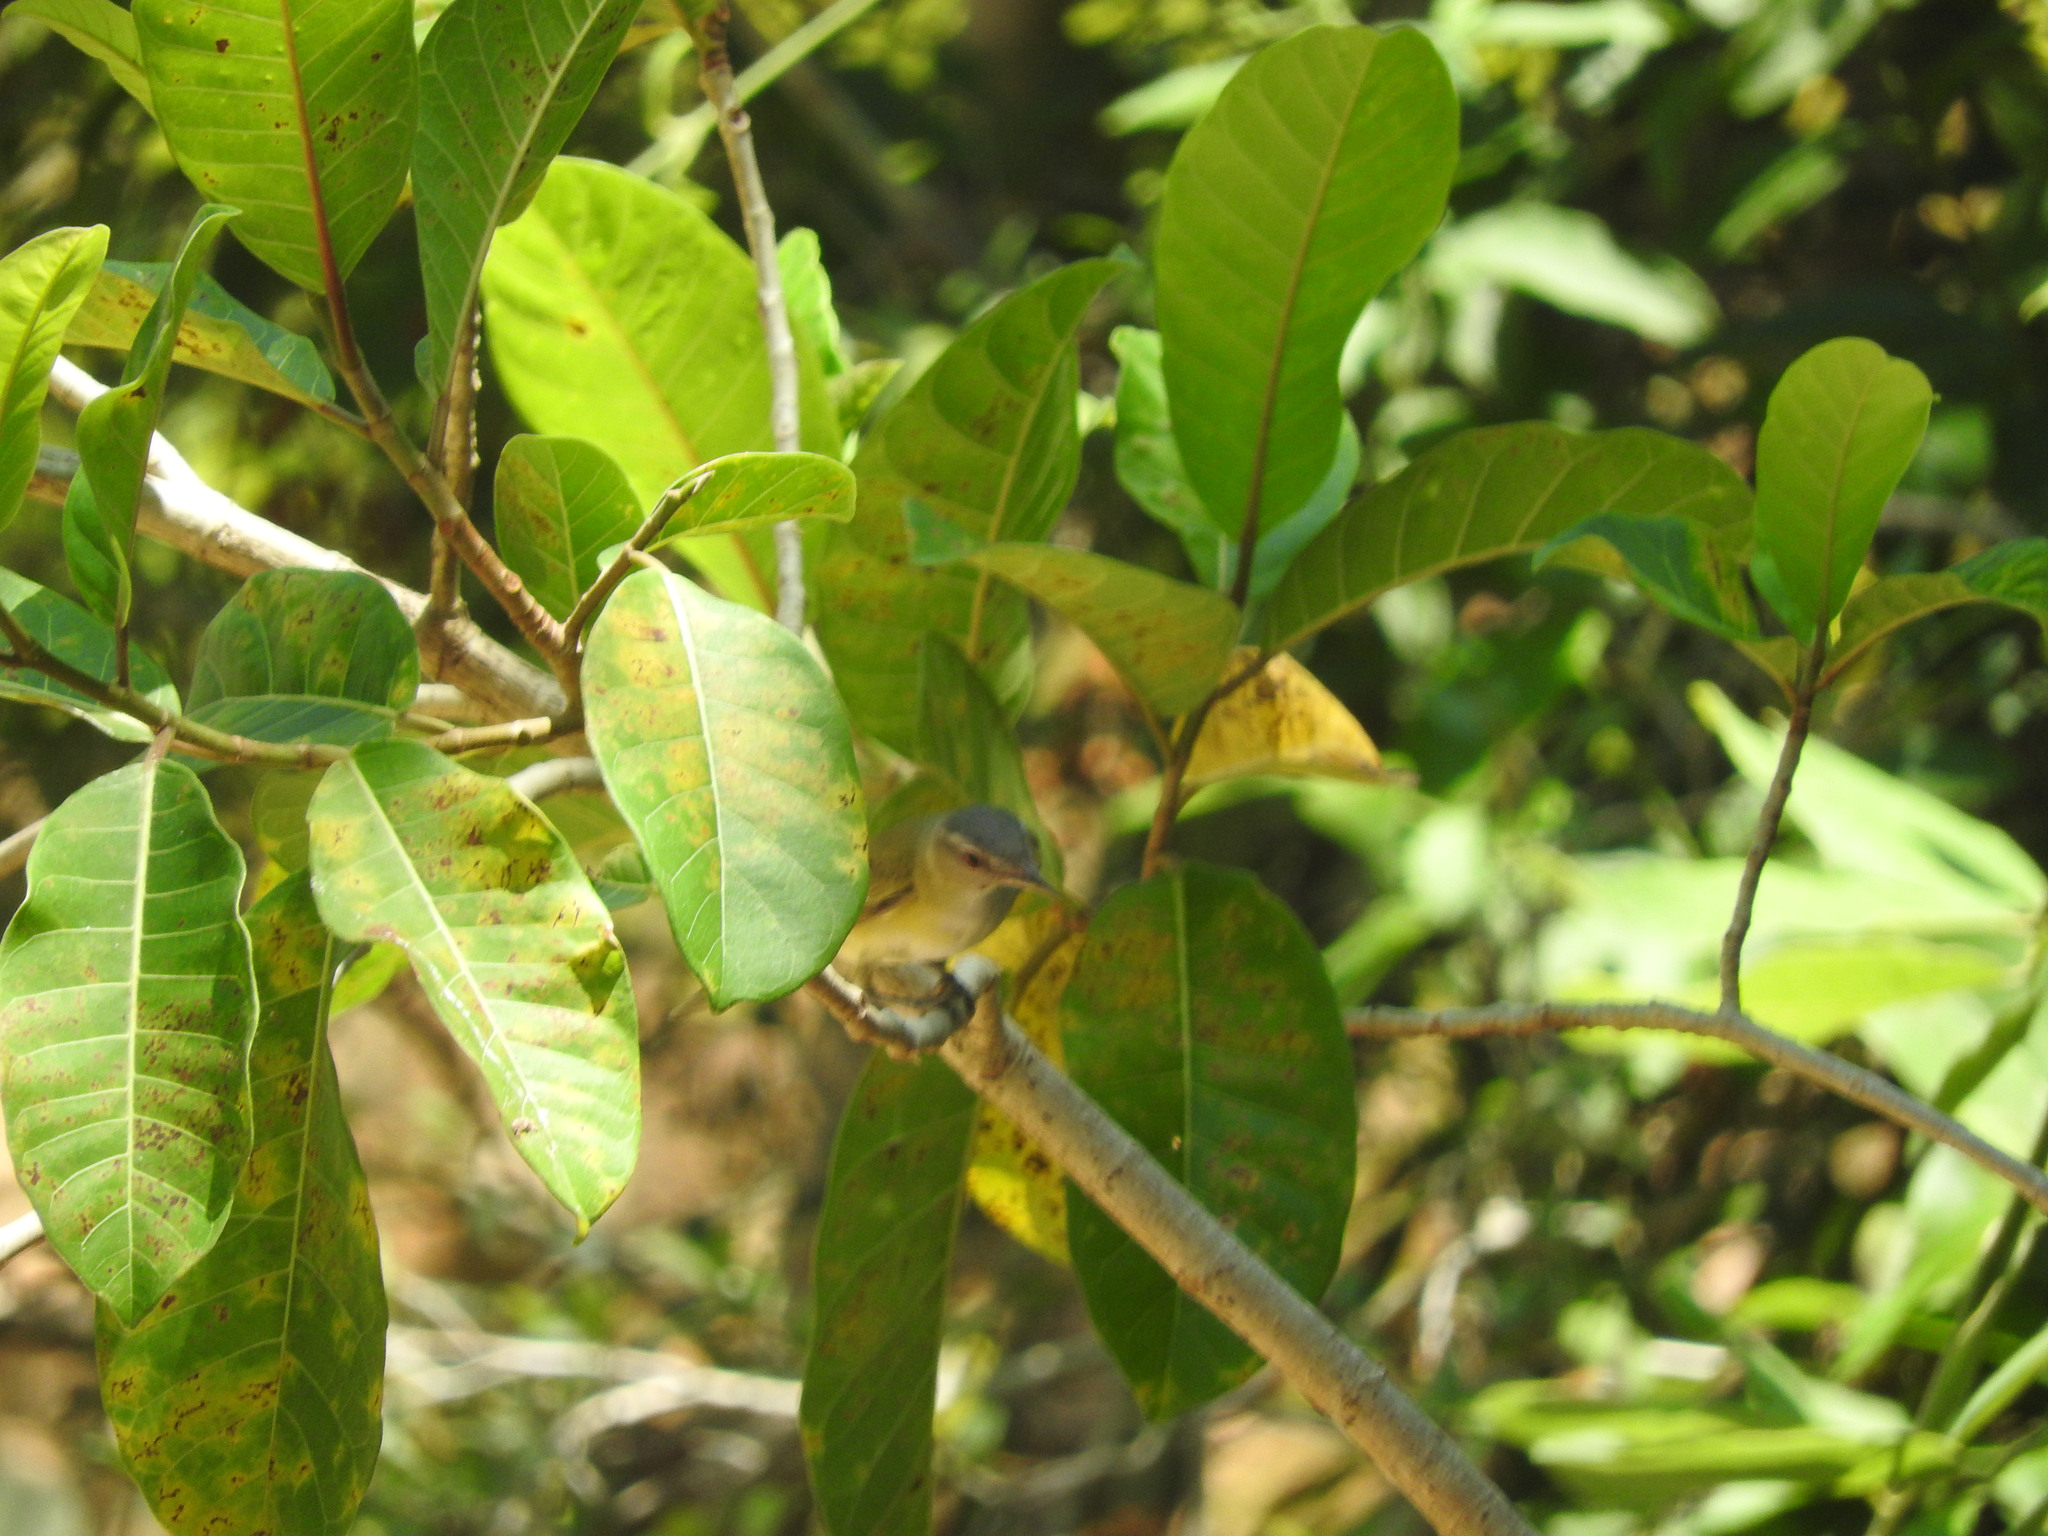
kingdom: Animalia
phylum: Chordata
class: Aves
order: Passeriformes
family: Vireonidae
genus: Vireo
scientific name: Vireo flavoviridis
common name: Yellow-green vireo
